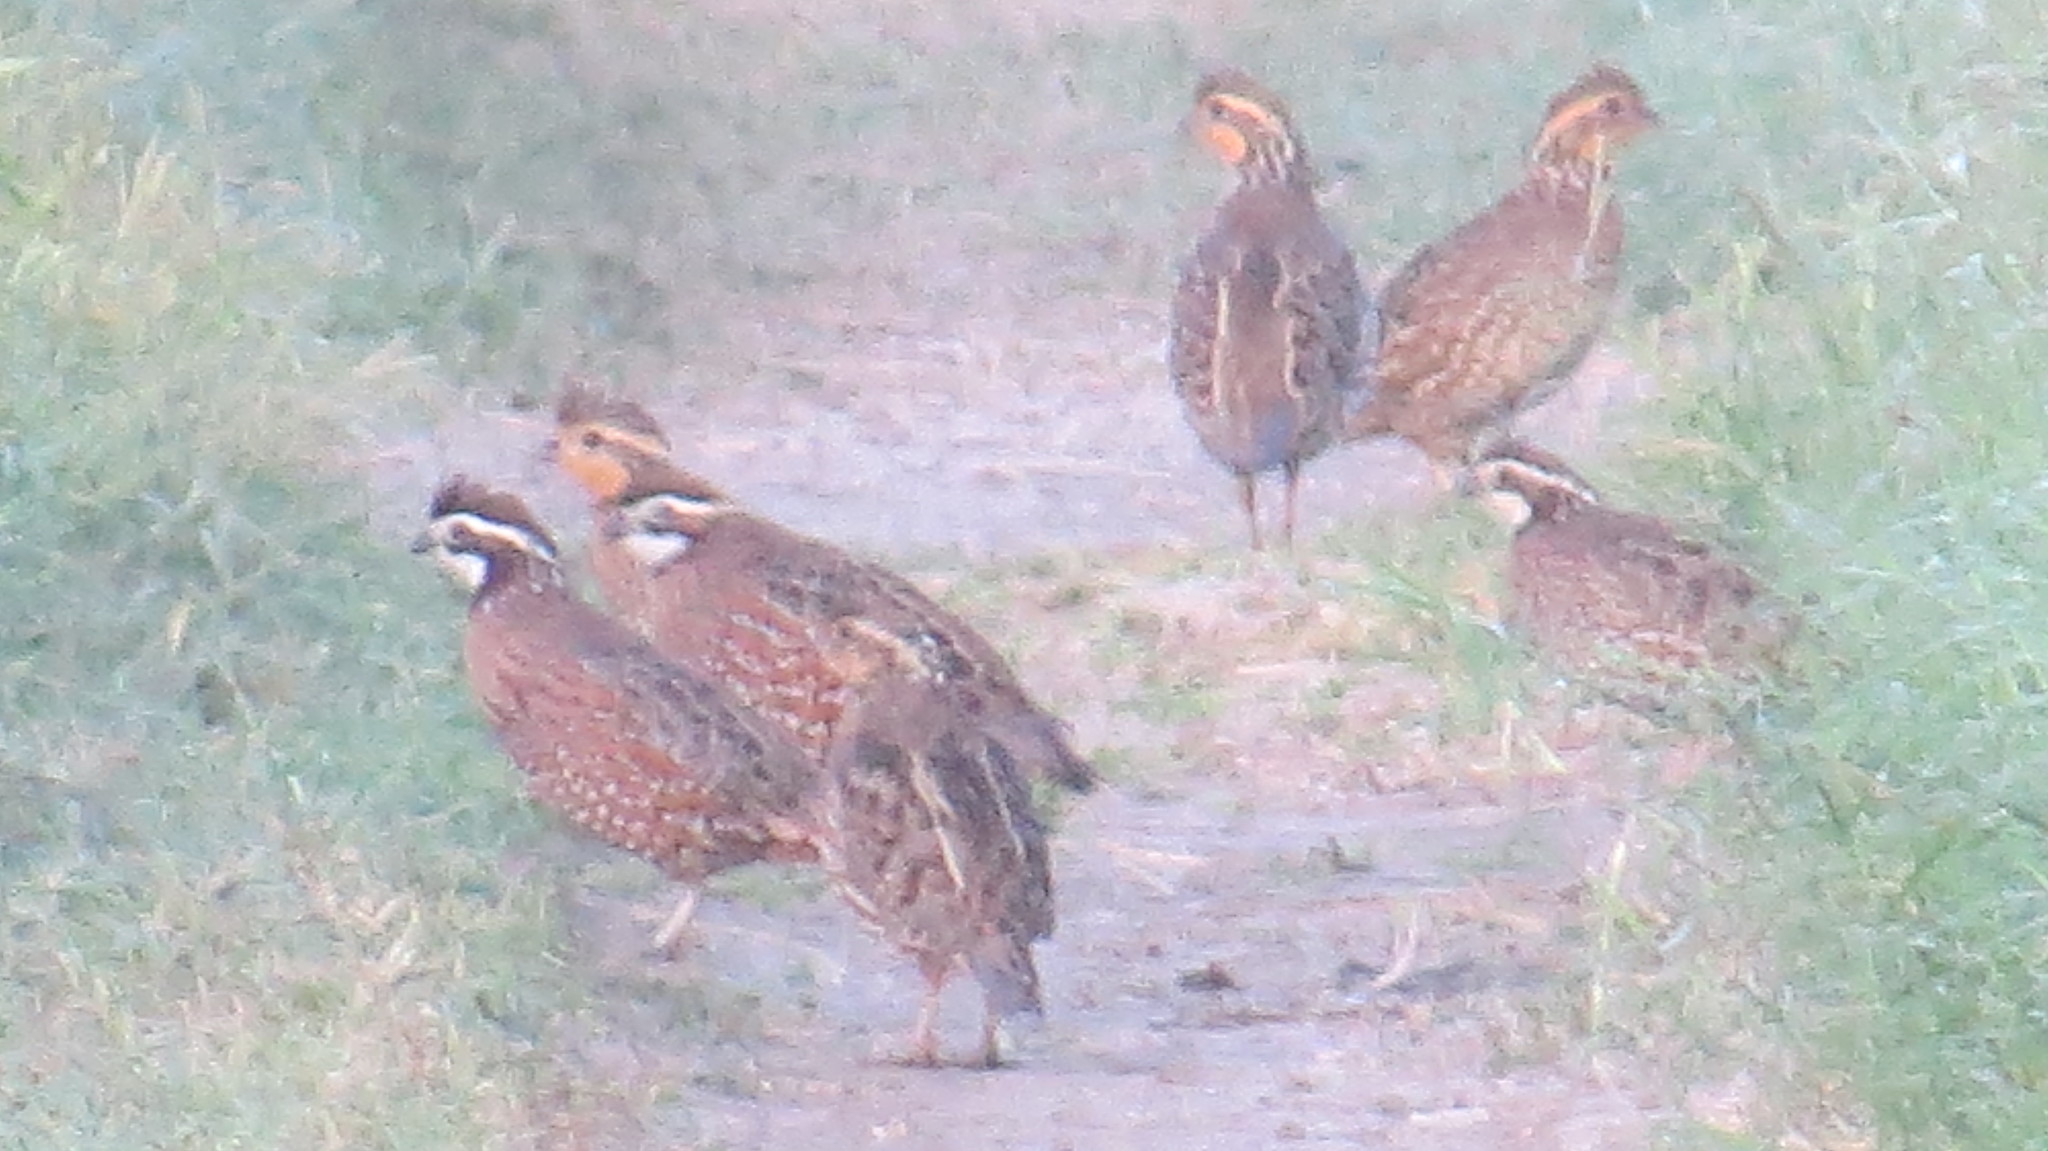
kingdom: Animalia
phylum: Chordata
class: Aves
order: Galliformes
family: Odontophoridae
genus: Colinus
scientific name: Colinus virginianus
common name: Northern bobwhite
